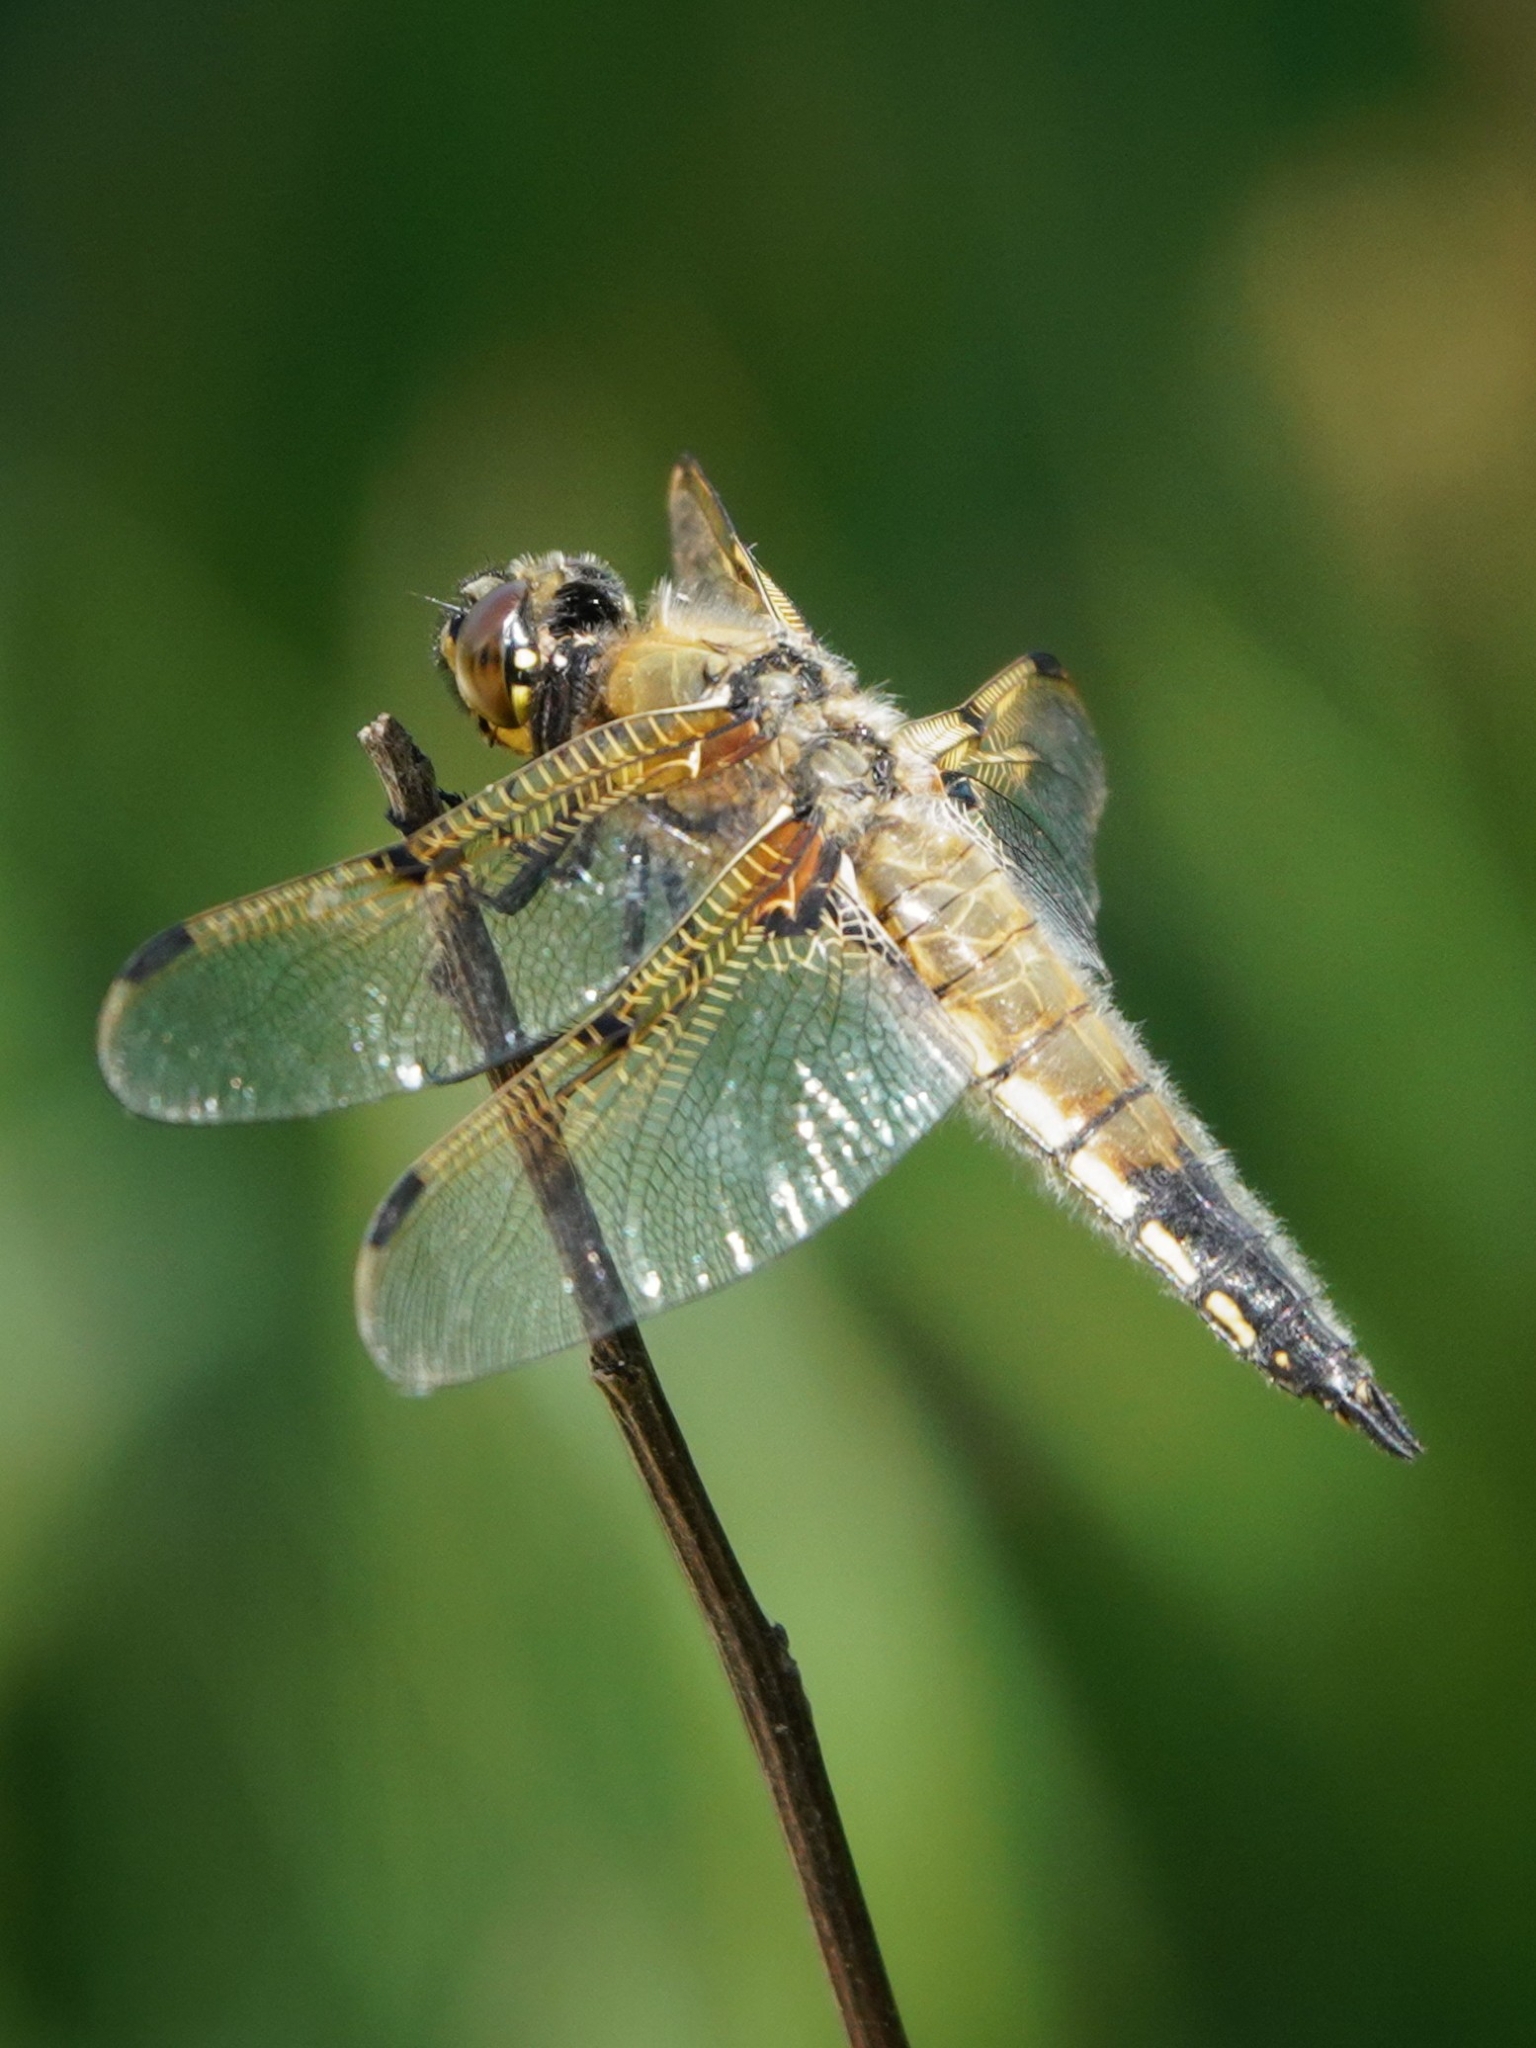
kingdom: Animalia
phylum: Arthropoda
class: Insecta
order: Odonata
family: Libellulidae
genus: Libellula
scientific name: Libellula quadrimaculata
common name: Four-spotted chaser
